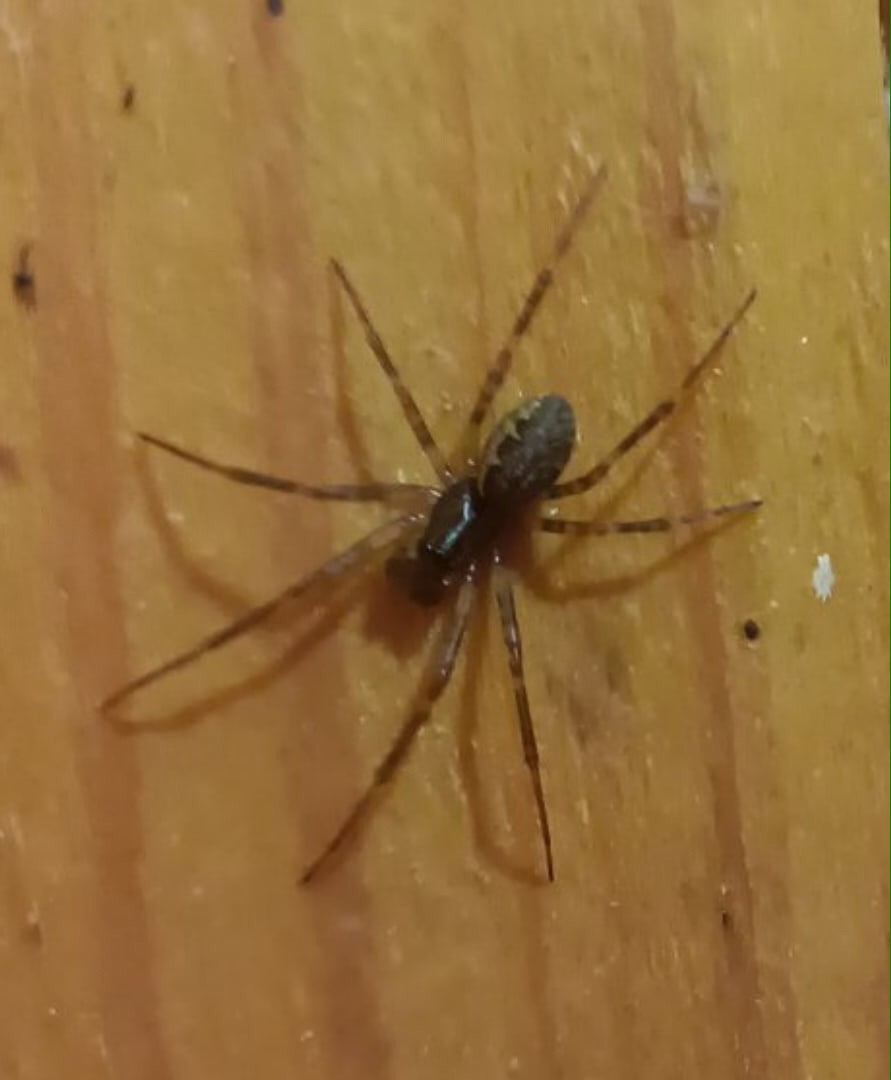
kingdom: Animalia
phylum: Arthropoda
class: Arachnida
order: Araneae
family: Linyphiidae
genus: Neriene
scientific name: Neriene montana
